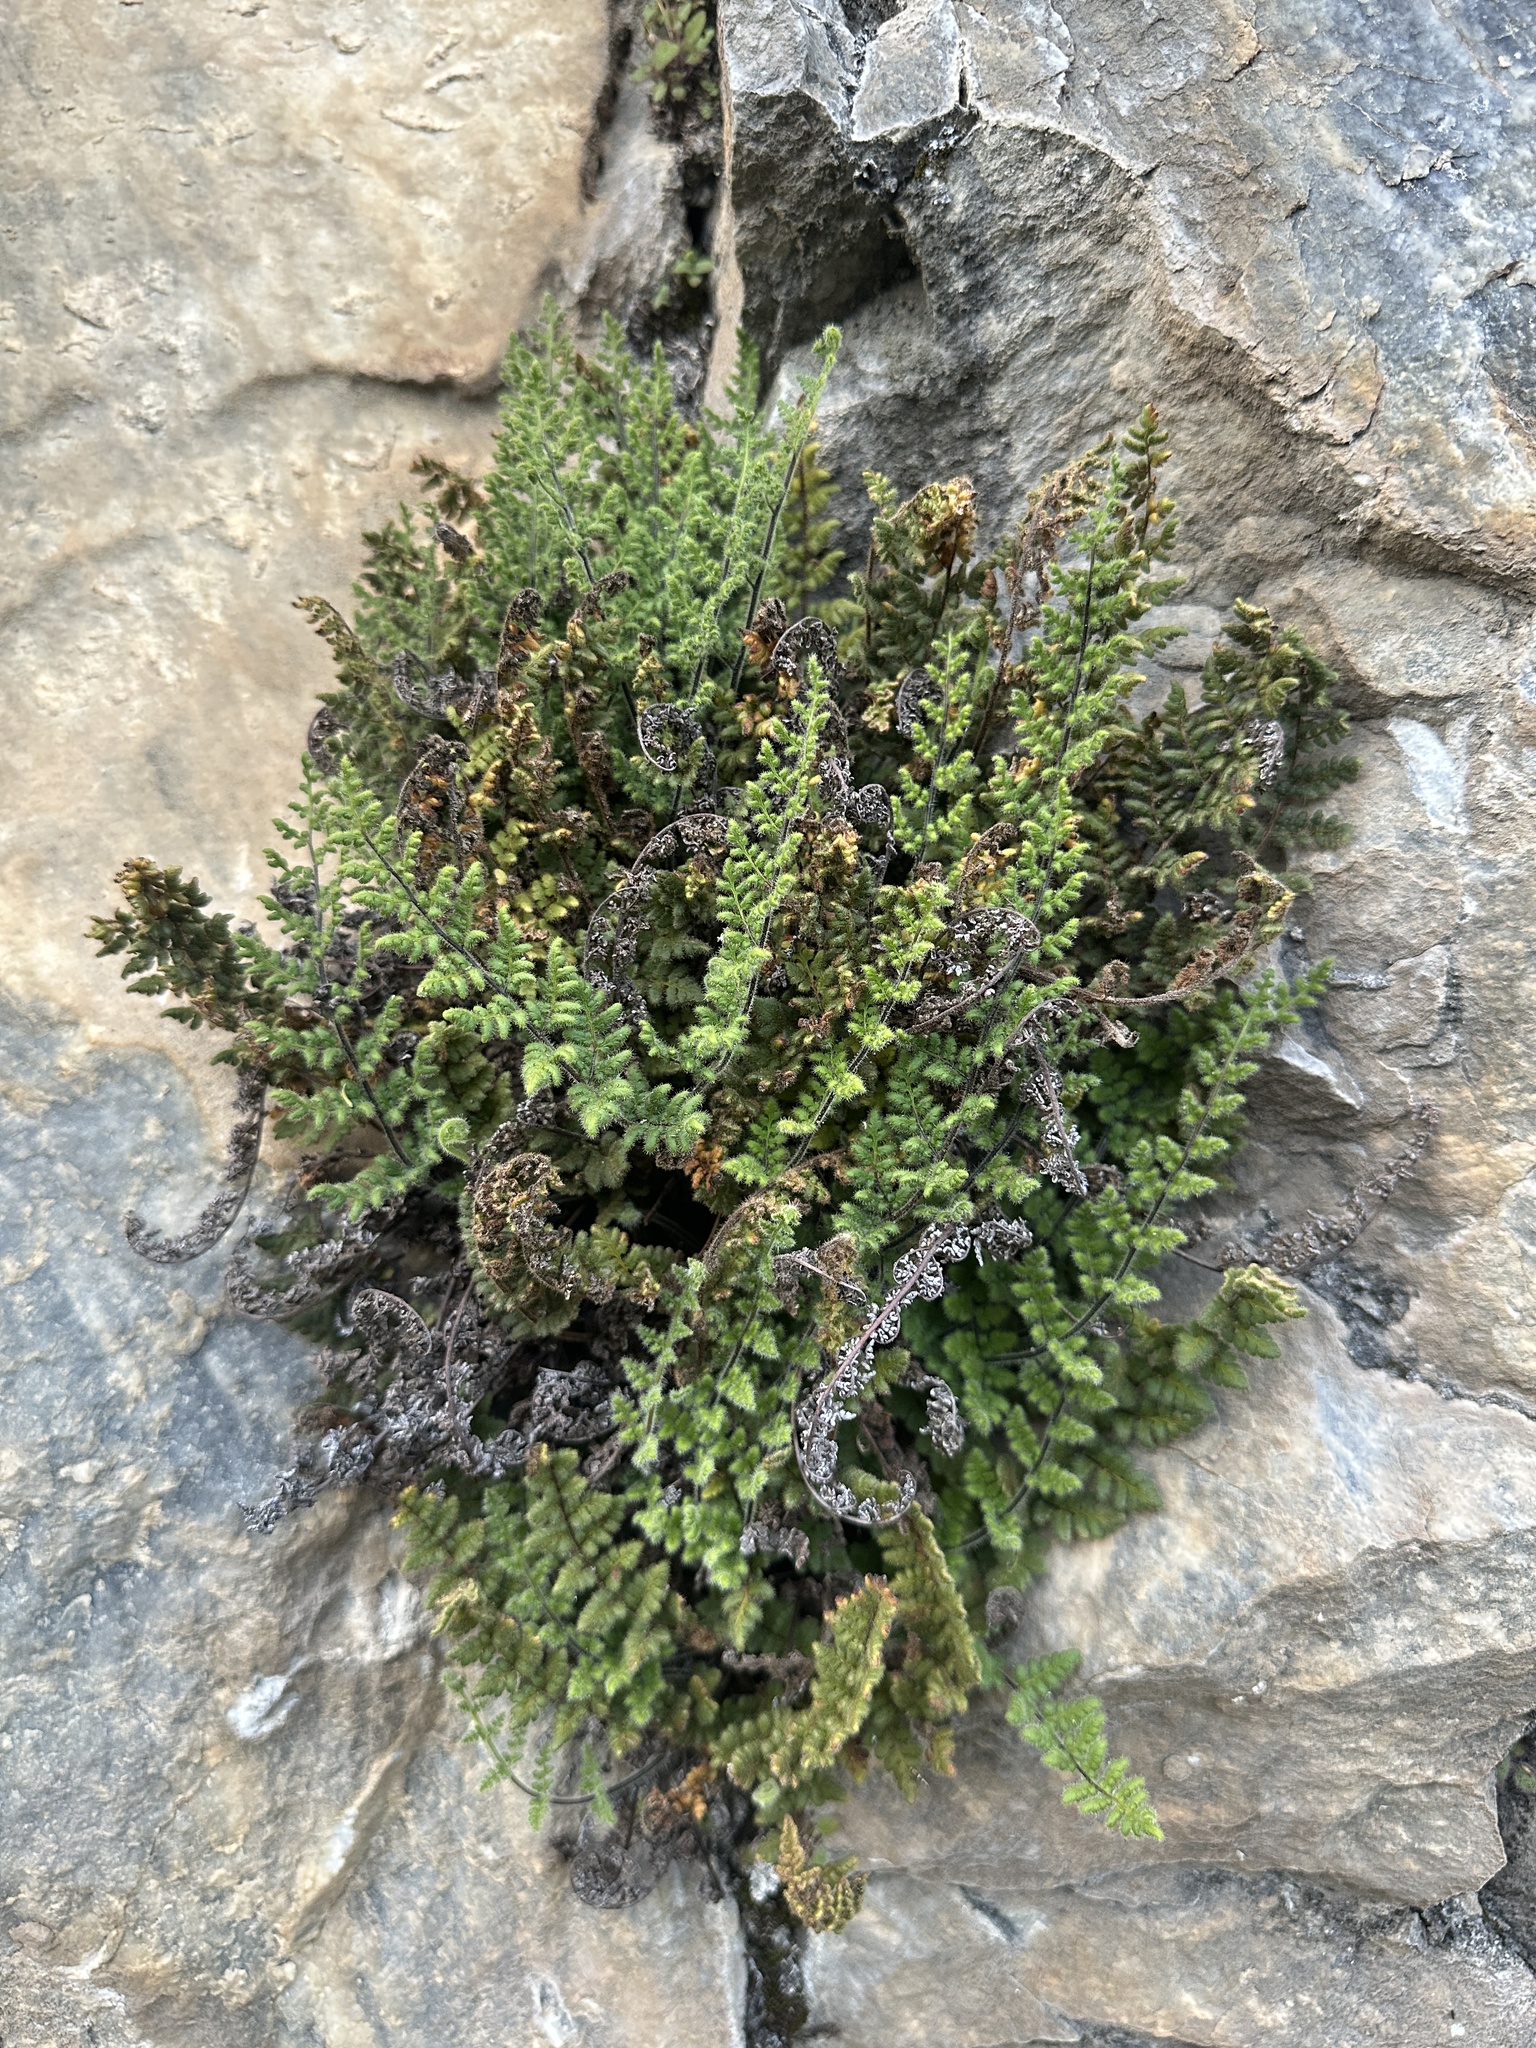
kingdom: Plantae
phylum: Tracheophyta
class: Polypodiopsida
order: Polypodiales
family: Pteridaceae
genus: Myriopteris
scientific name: Myriopteris cooperae
